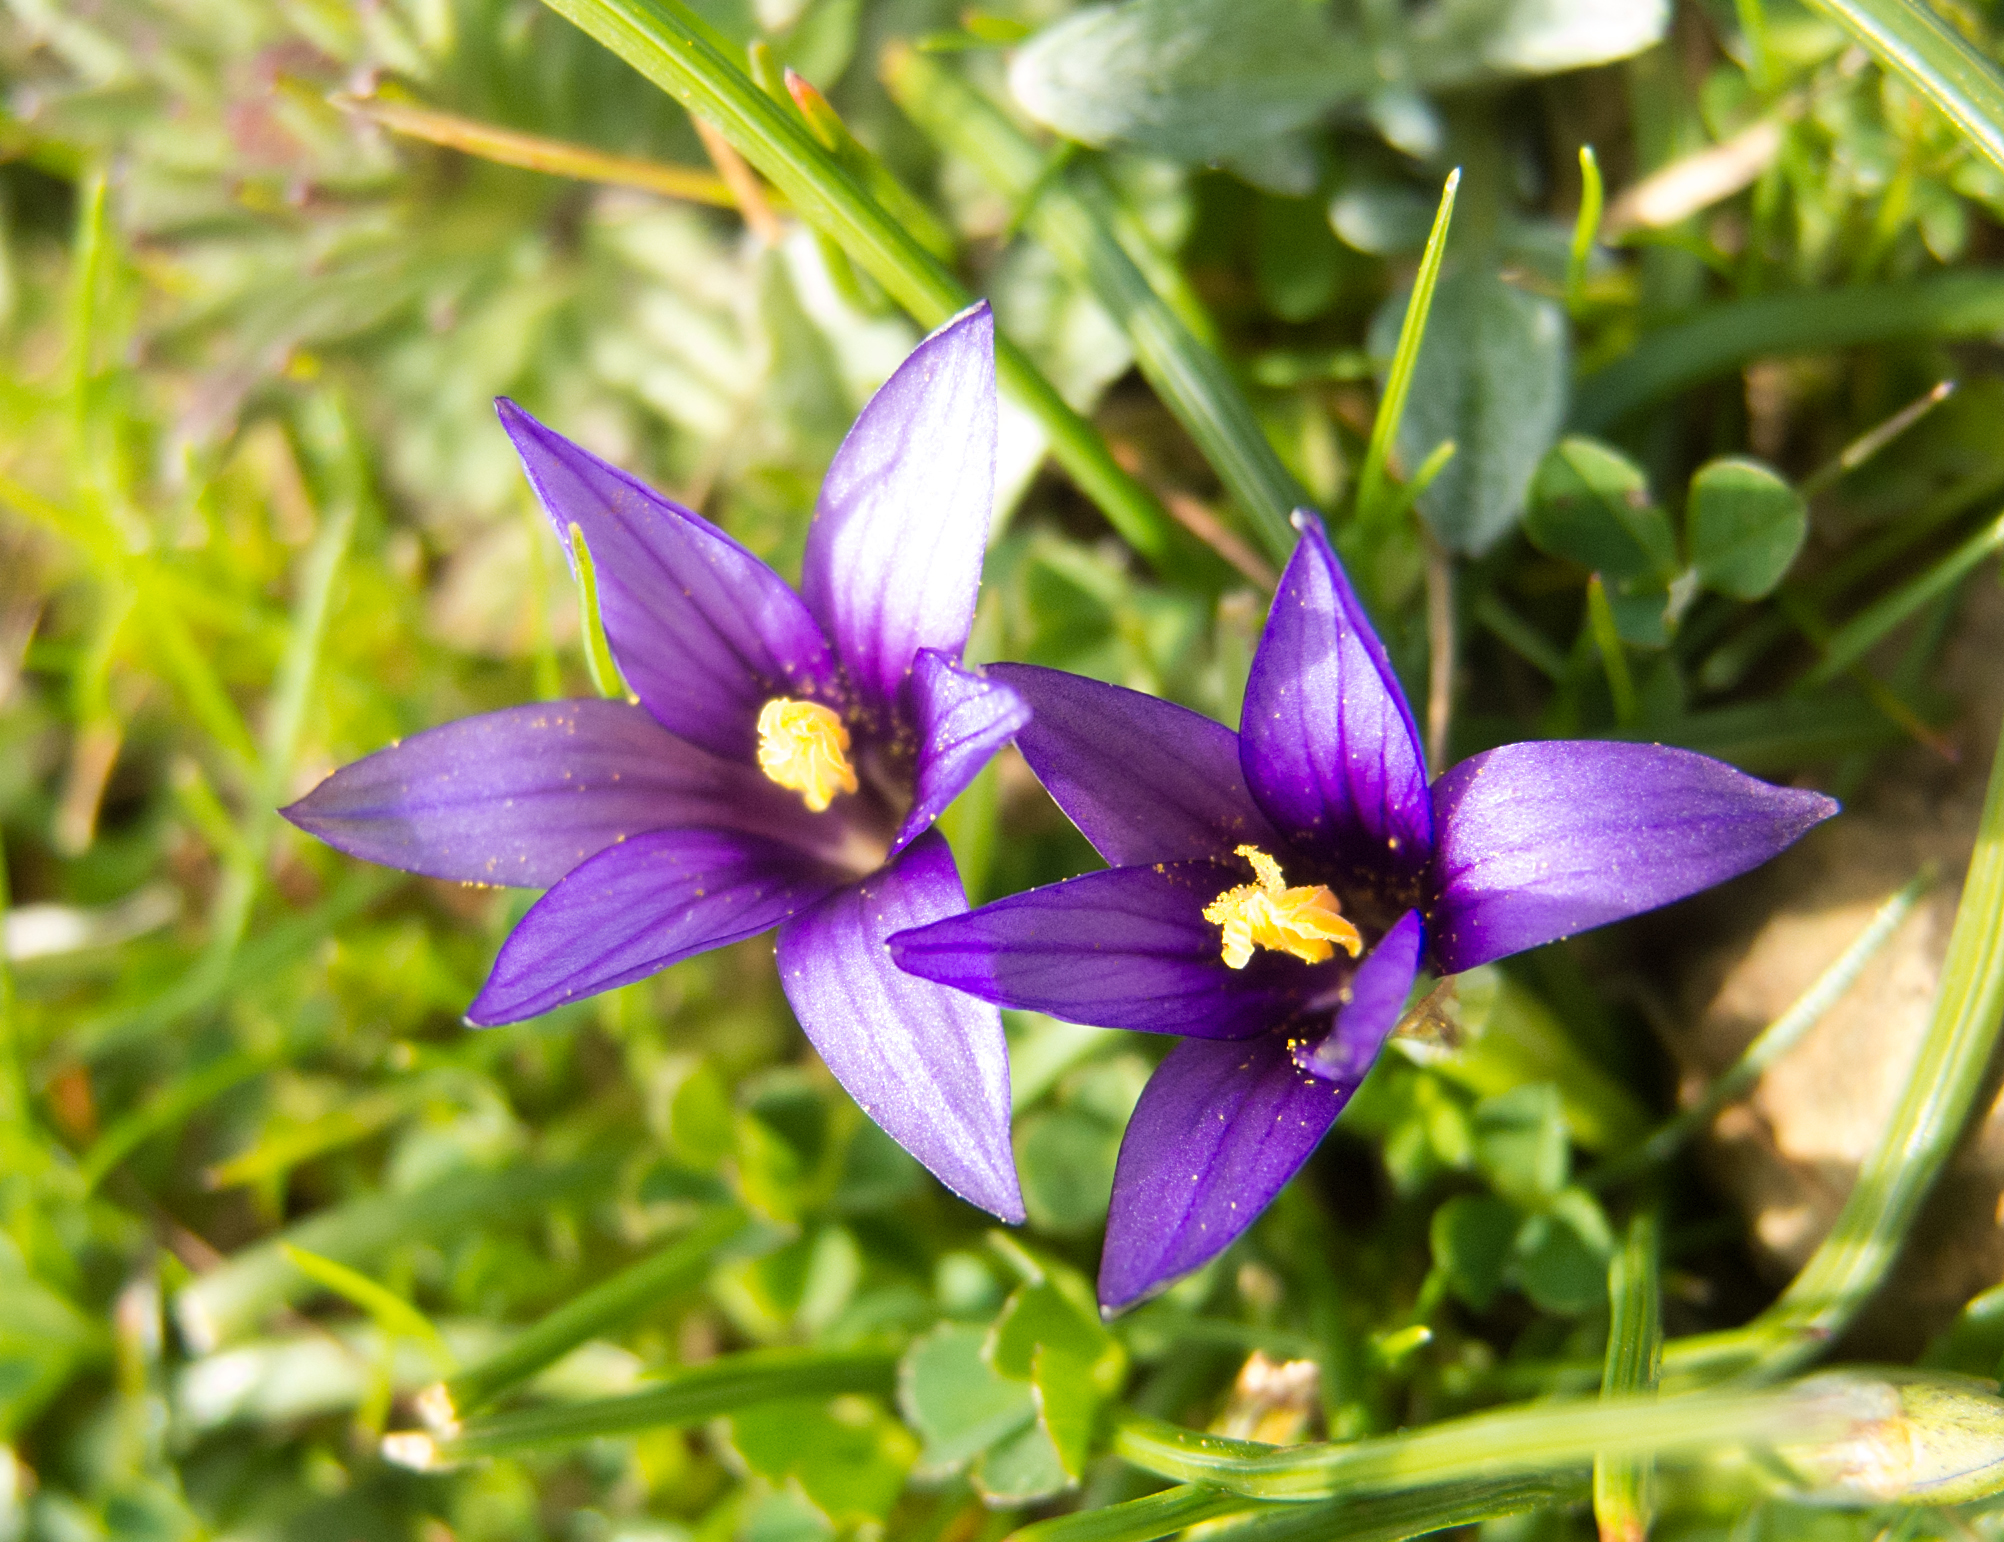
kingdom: Plantae
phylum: Tracheophyta
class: Liliopsida
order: Asparagales
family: Iridaceae
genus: Romulea
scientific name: Romulea linaresii
